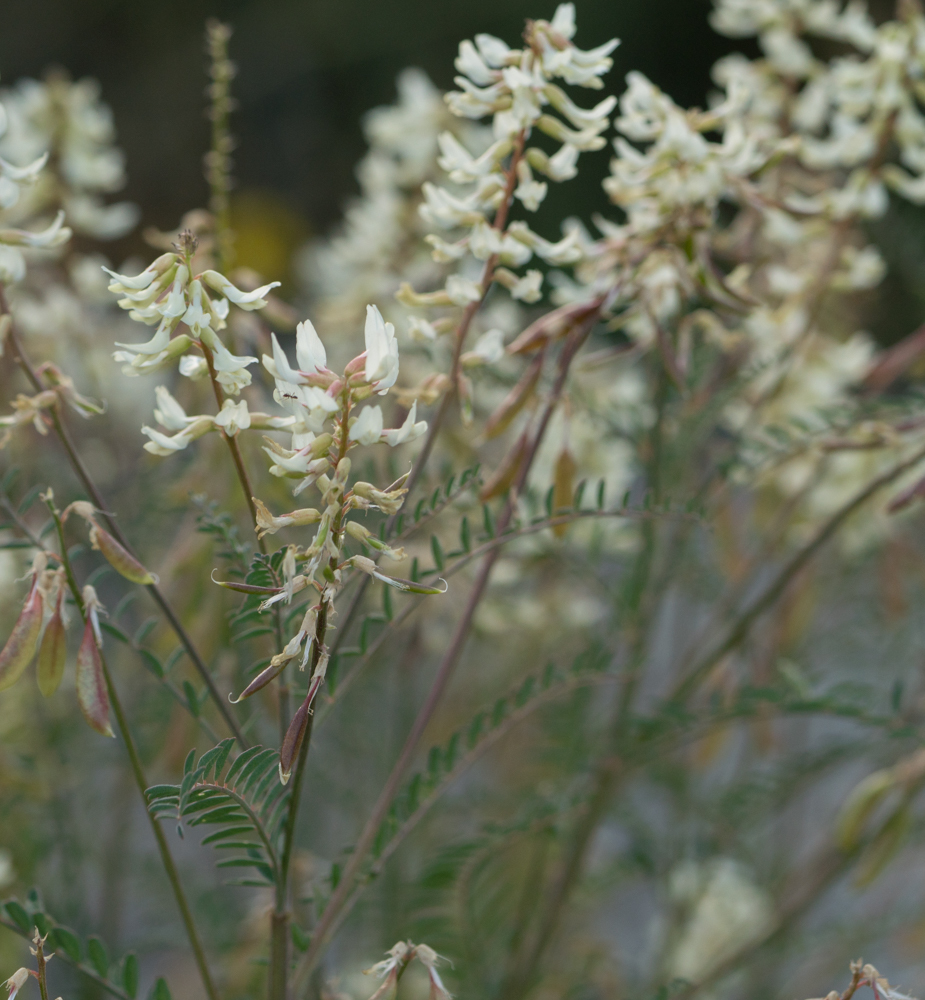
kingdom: Plantae
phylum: Tracheophyta
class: Magnoliopsida
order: Fabales
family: Fabaceae
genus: Astragalus
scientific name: Astragalus trichopodus
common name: Santa barbara milk-vetch
